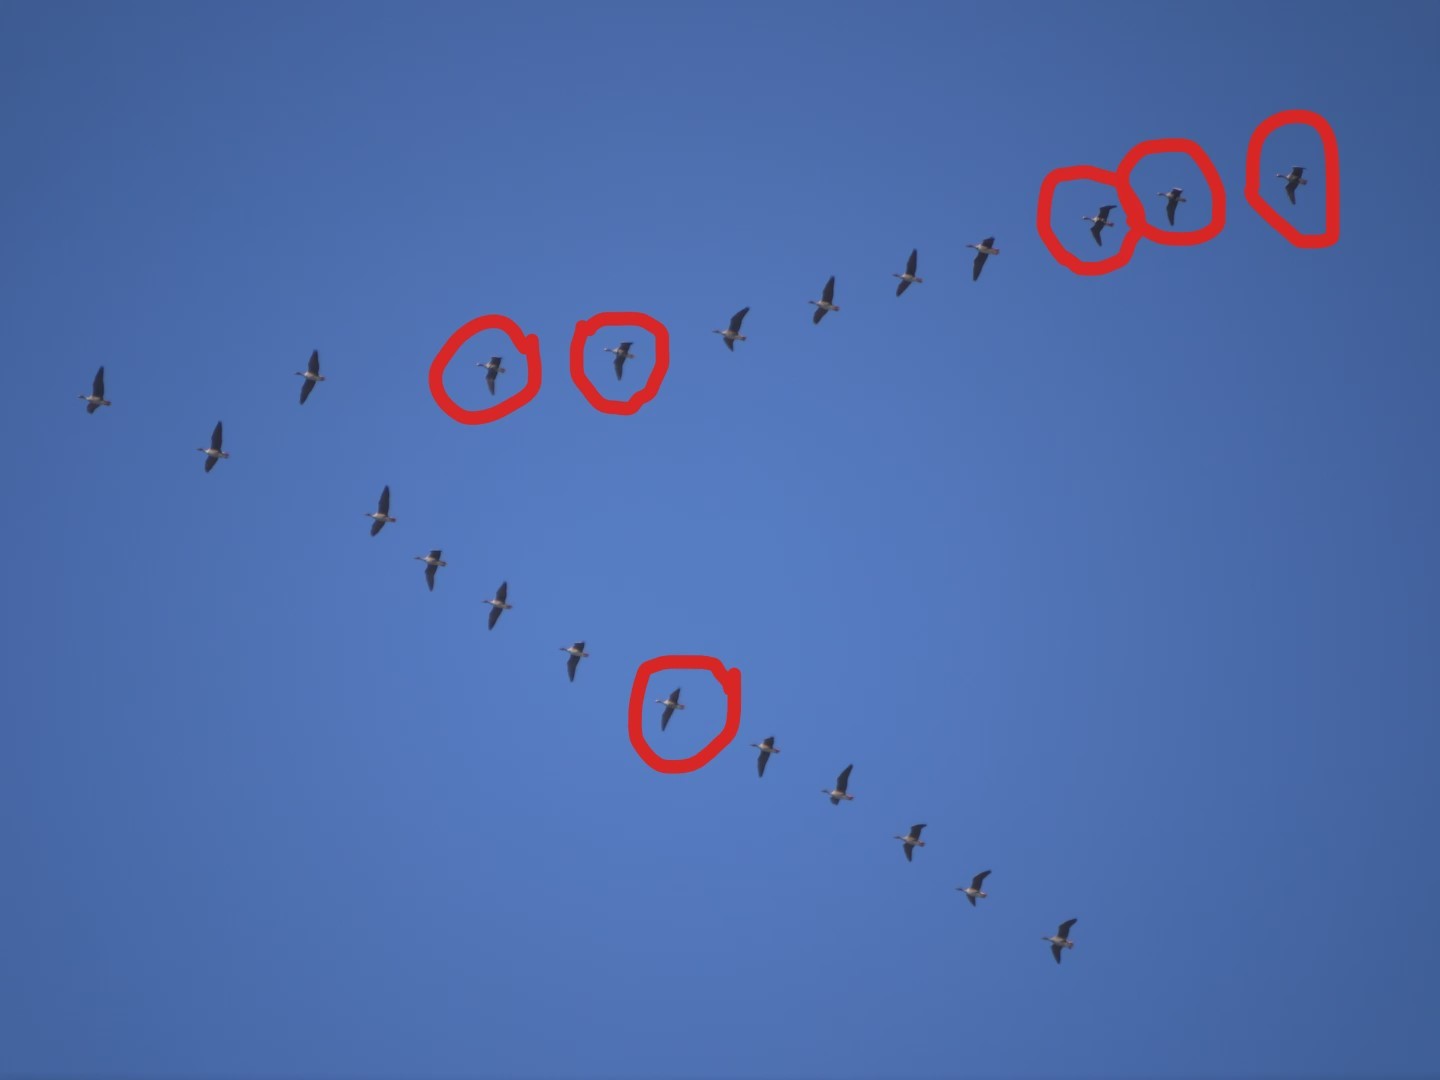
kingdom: Animalia
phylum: Chordata
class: Aves
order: Anseriformes
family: Anatidae
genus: Anser
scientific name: Anser albifrons
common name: Greater white-fronted goose
